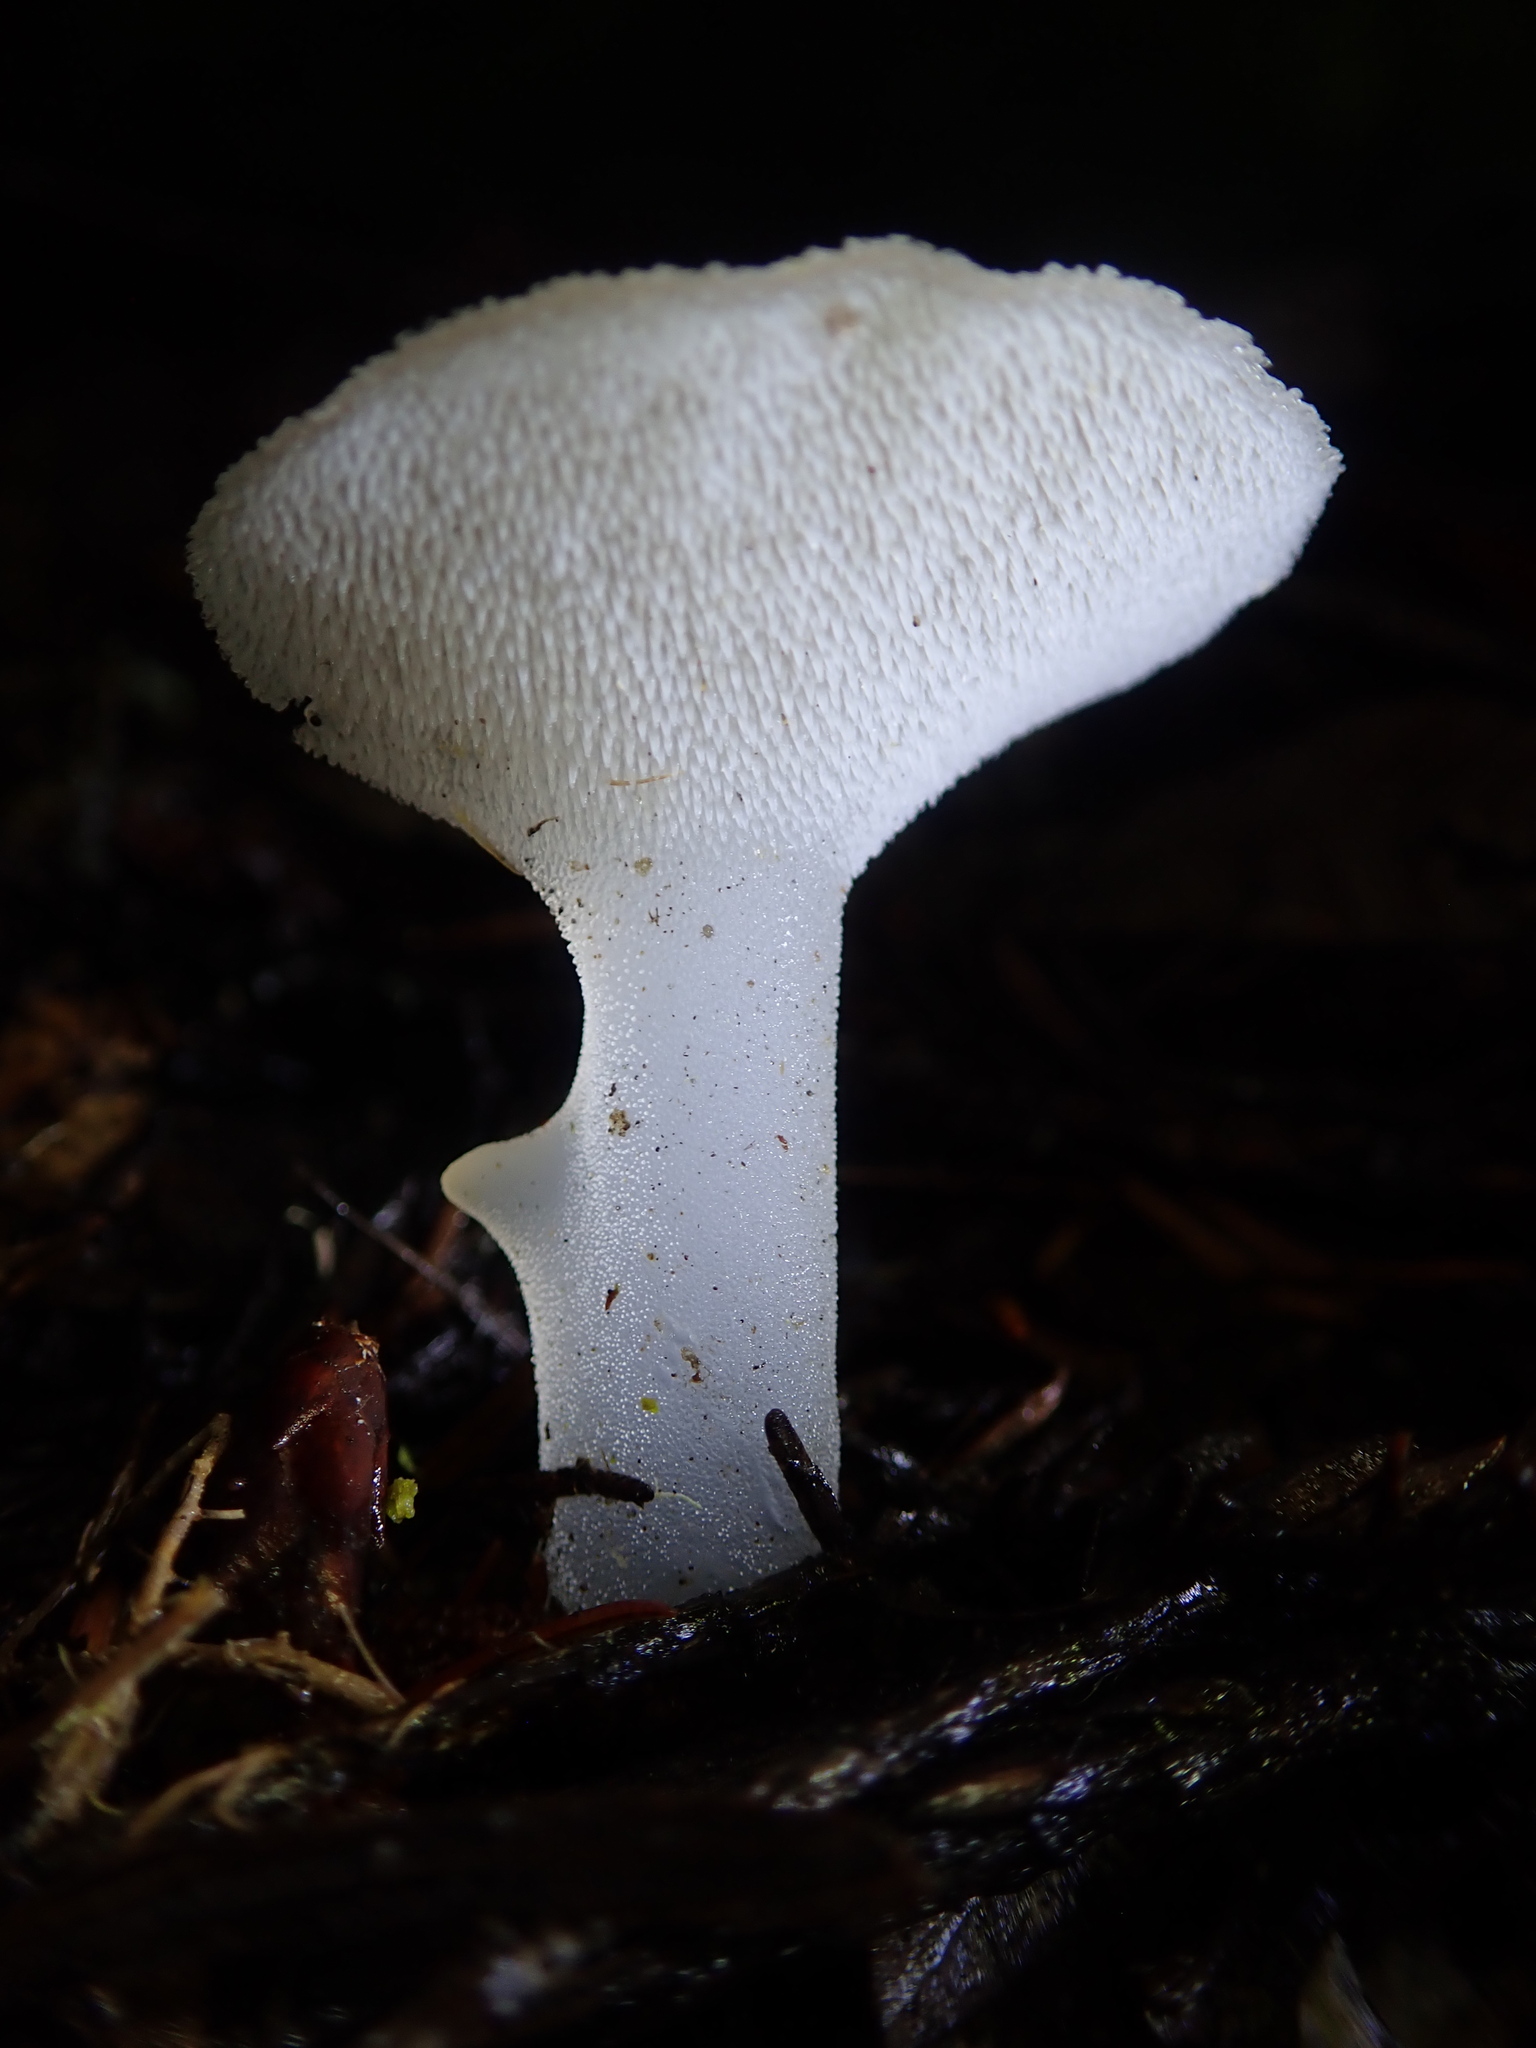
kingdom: Fungi
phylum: Basidiomycota
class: Agaricomycetes
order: Auriculariales
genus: Pseudohydnum
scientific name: Pseudohydnum gelatinosum
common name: Jelly tongue
